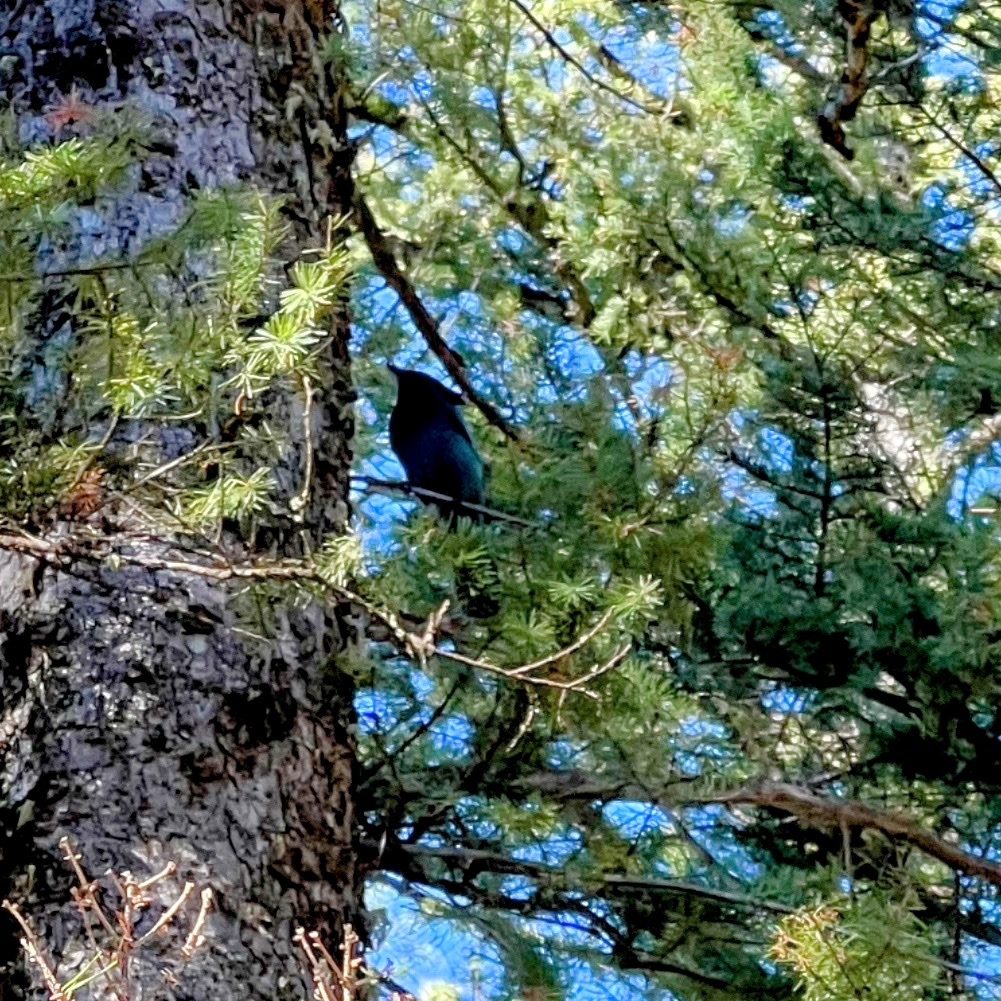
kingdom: Animalia
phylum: Chordata
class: Aves
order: Passeriformes
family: Corvidae
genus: Cyanocitta
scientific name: Cyanocitta stelleri
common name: Steller's jay
